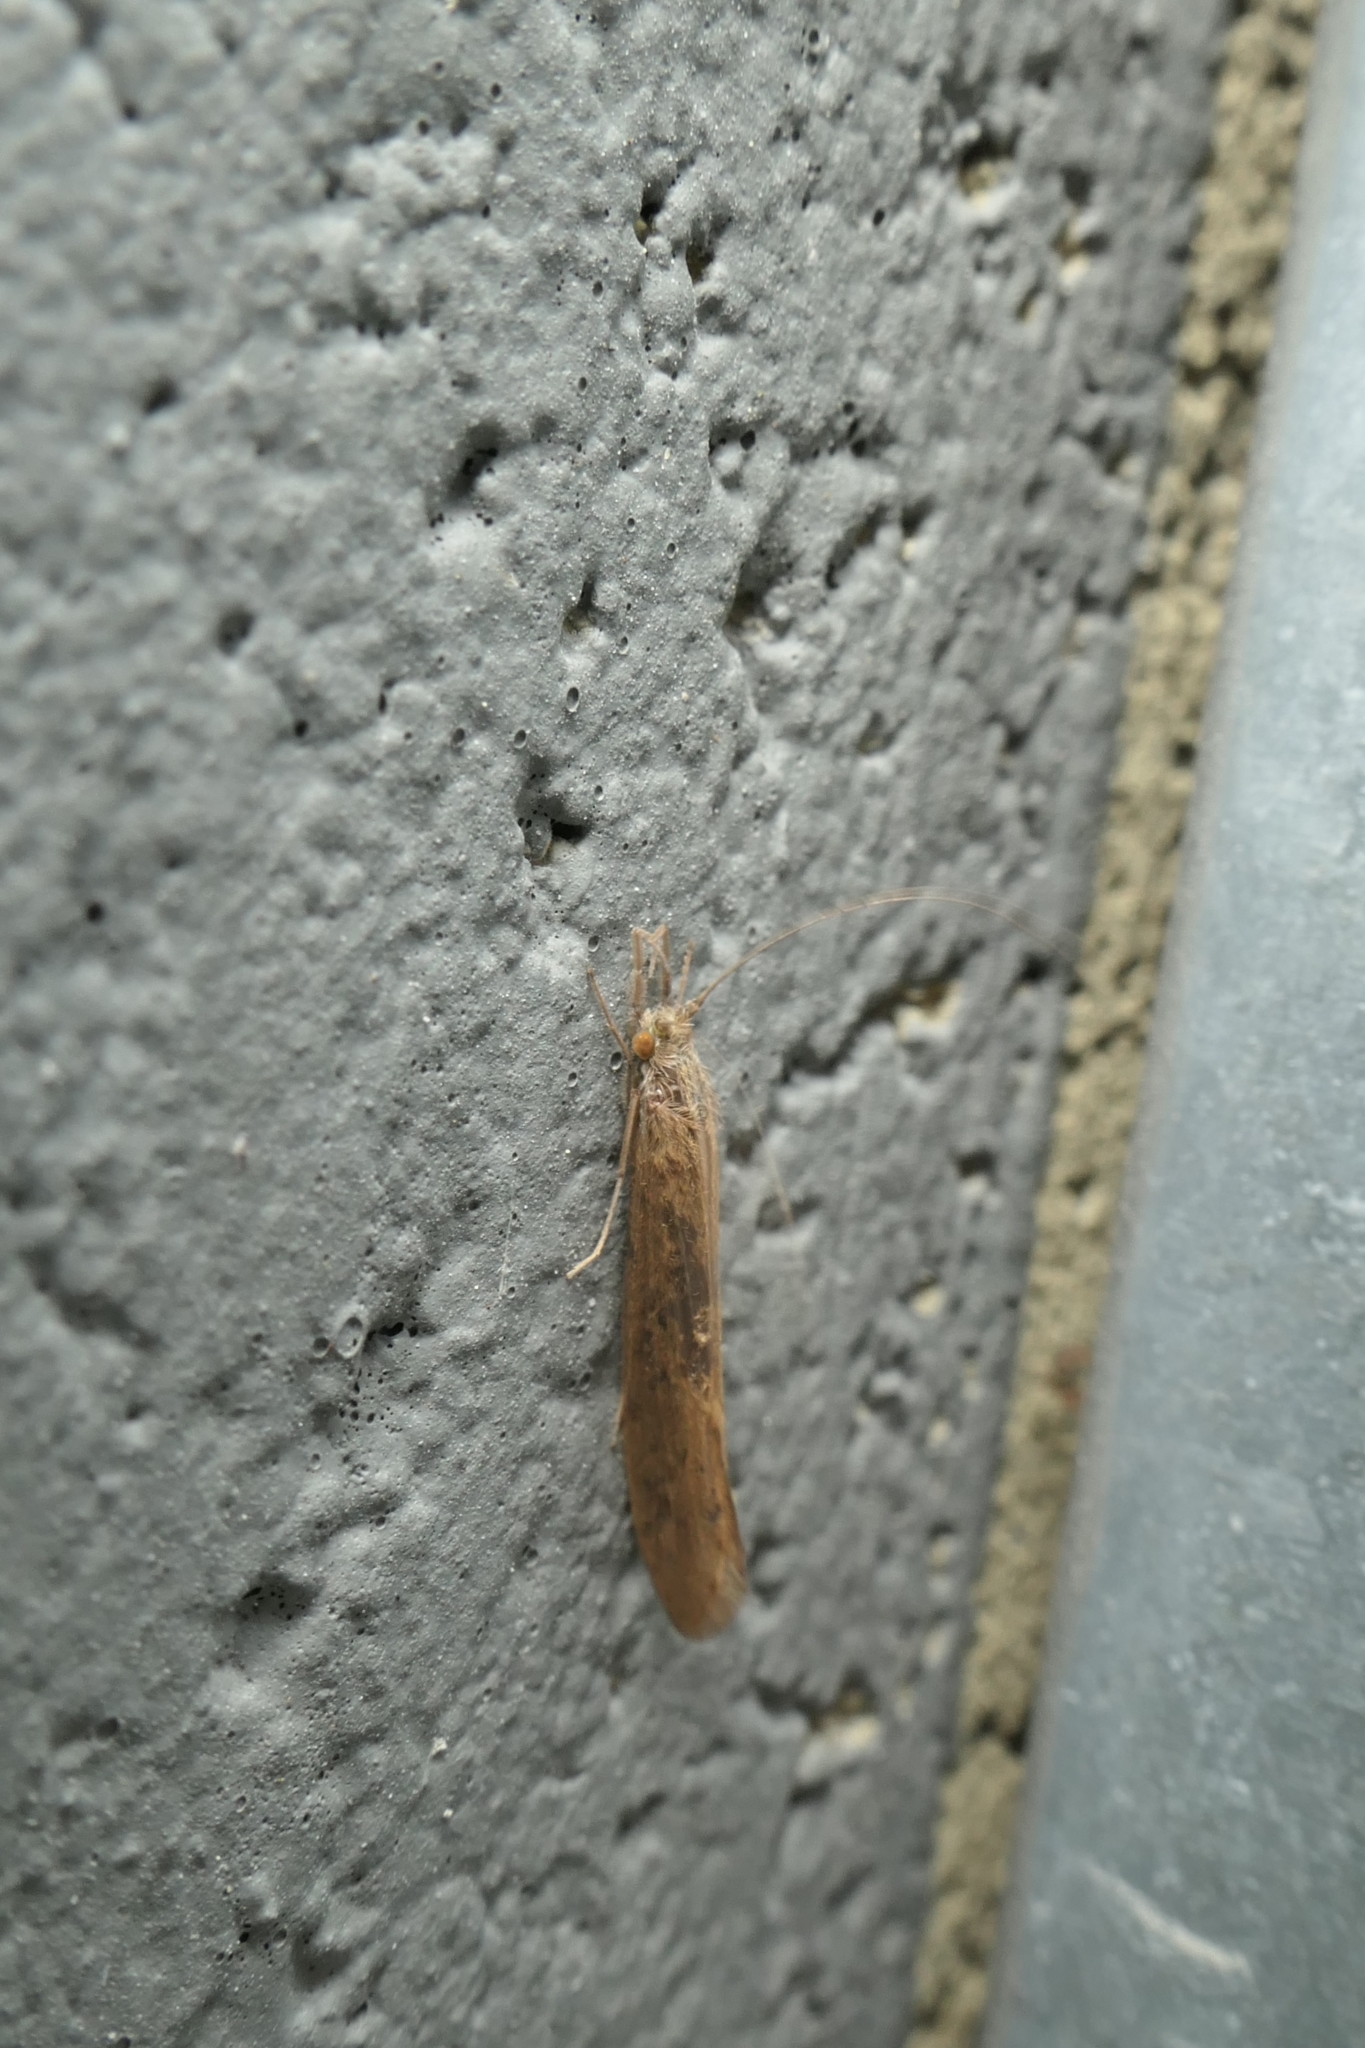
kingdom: Animalia
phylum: Arthropoda
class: Insecta
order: Trichoptera
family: Leptoceridae
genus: Oecetis
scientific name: Oecetis unicolor
